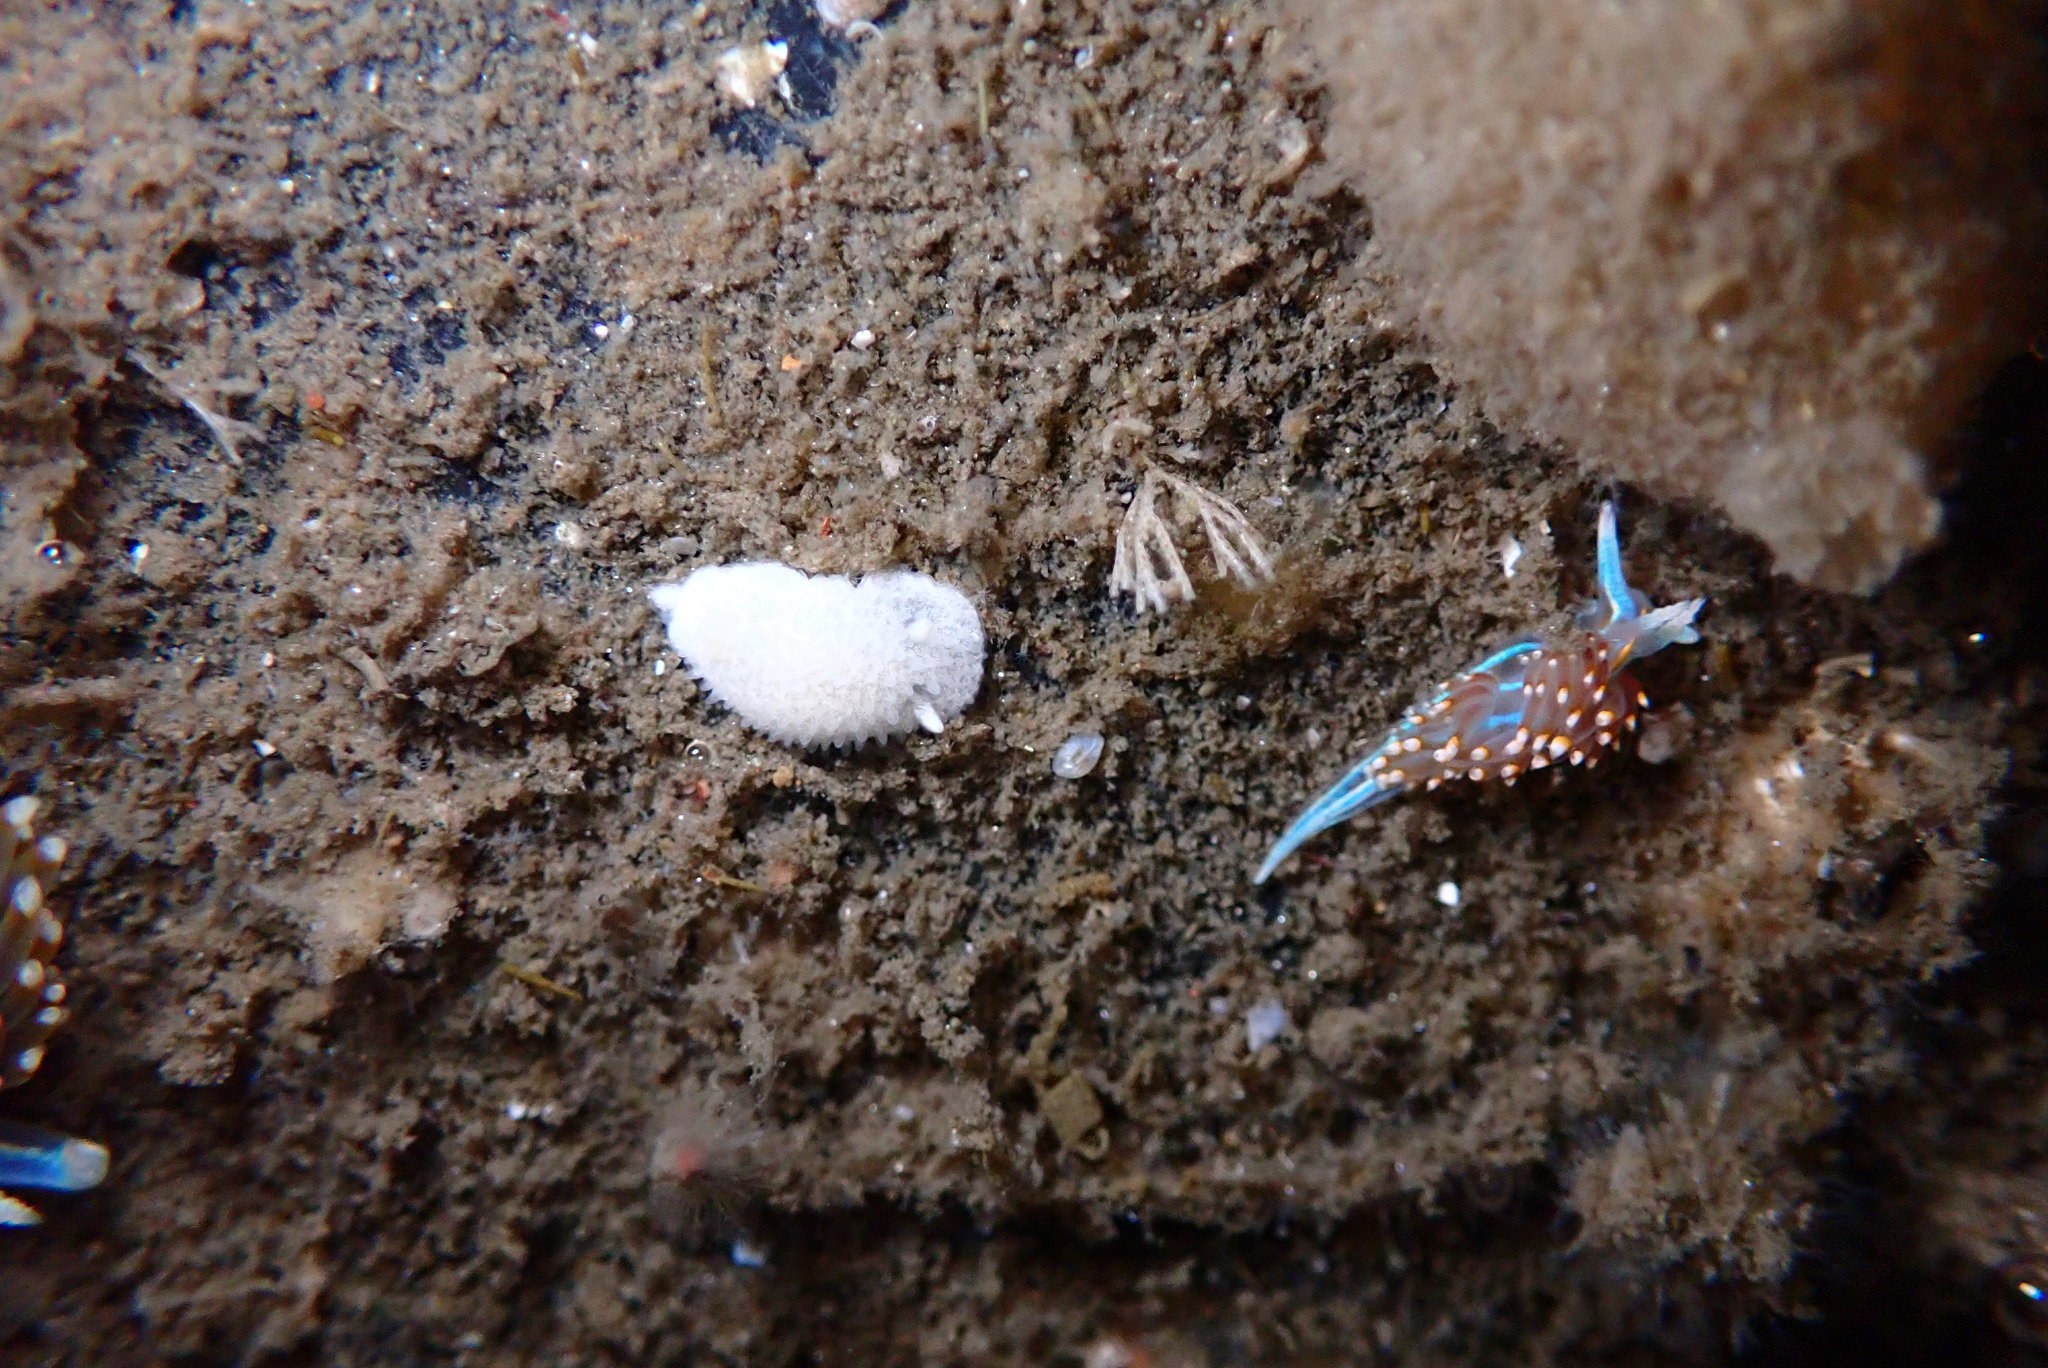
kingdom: Animalia
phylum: Mollusca
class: Gastropoda
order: Nudibranchia
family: Myrrhinidae
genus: Hermissenda
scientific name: Hermissenda opalescens
